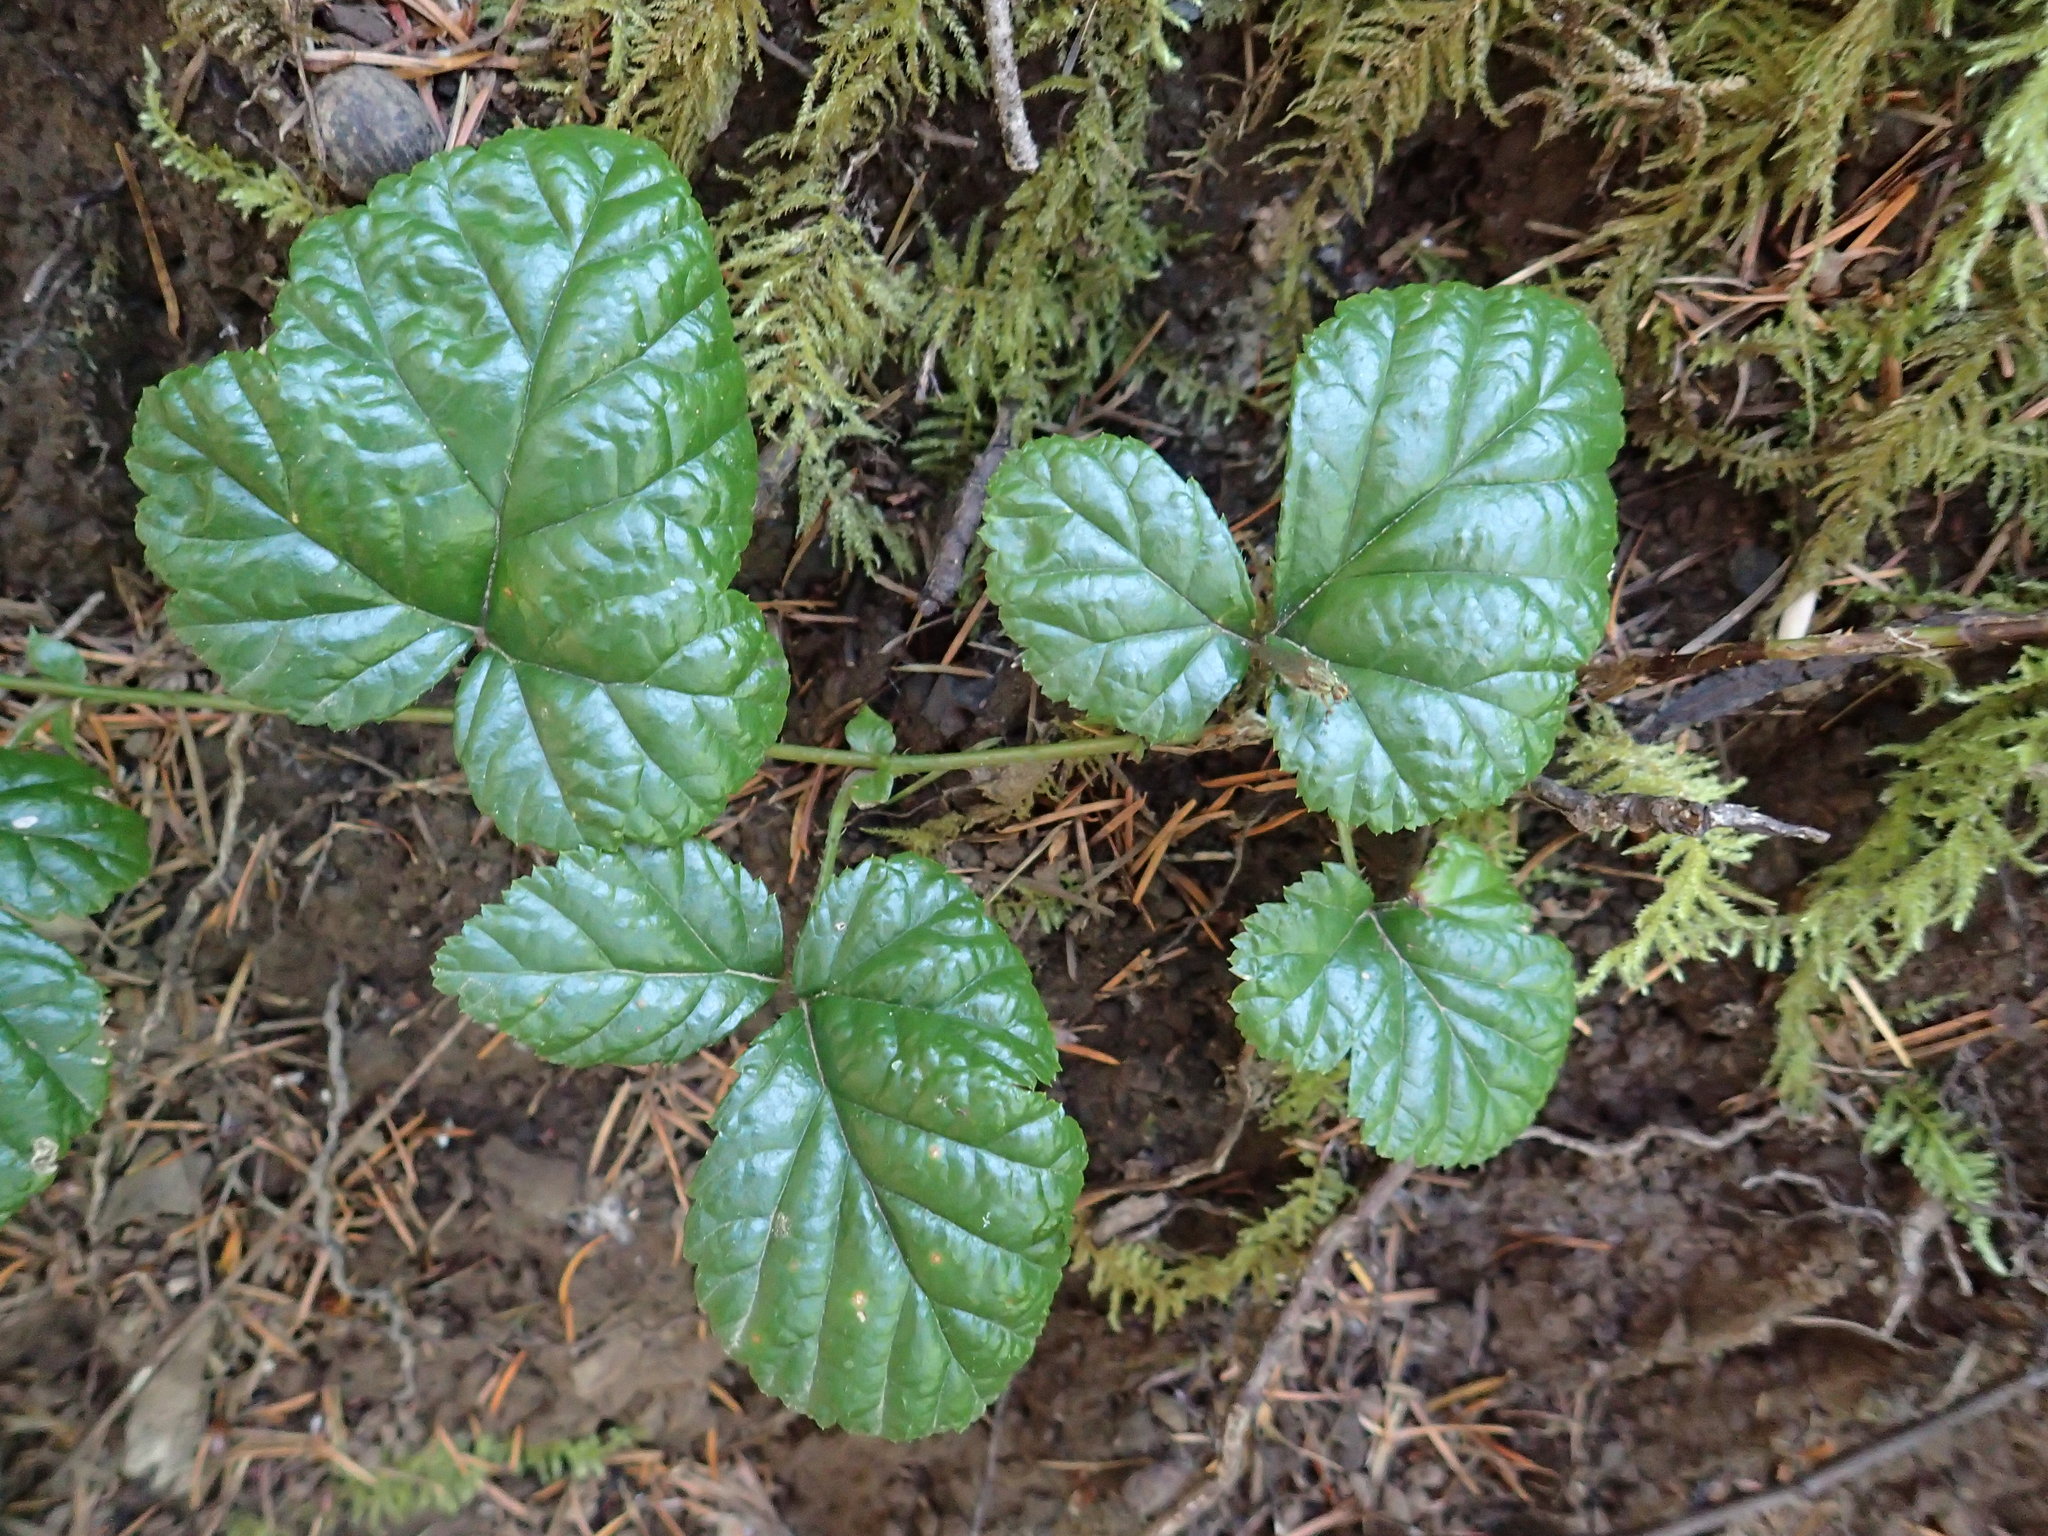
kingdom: Plantae
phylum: Tracheophyta
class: Magnoliopsida
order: Rosales
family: Rosaceae
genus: Rubus
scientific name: Rubus nivalis
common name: Dwarf snow bramble
